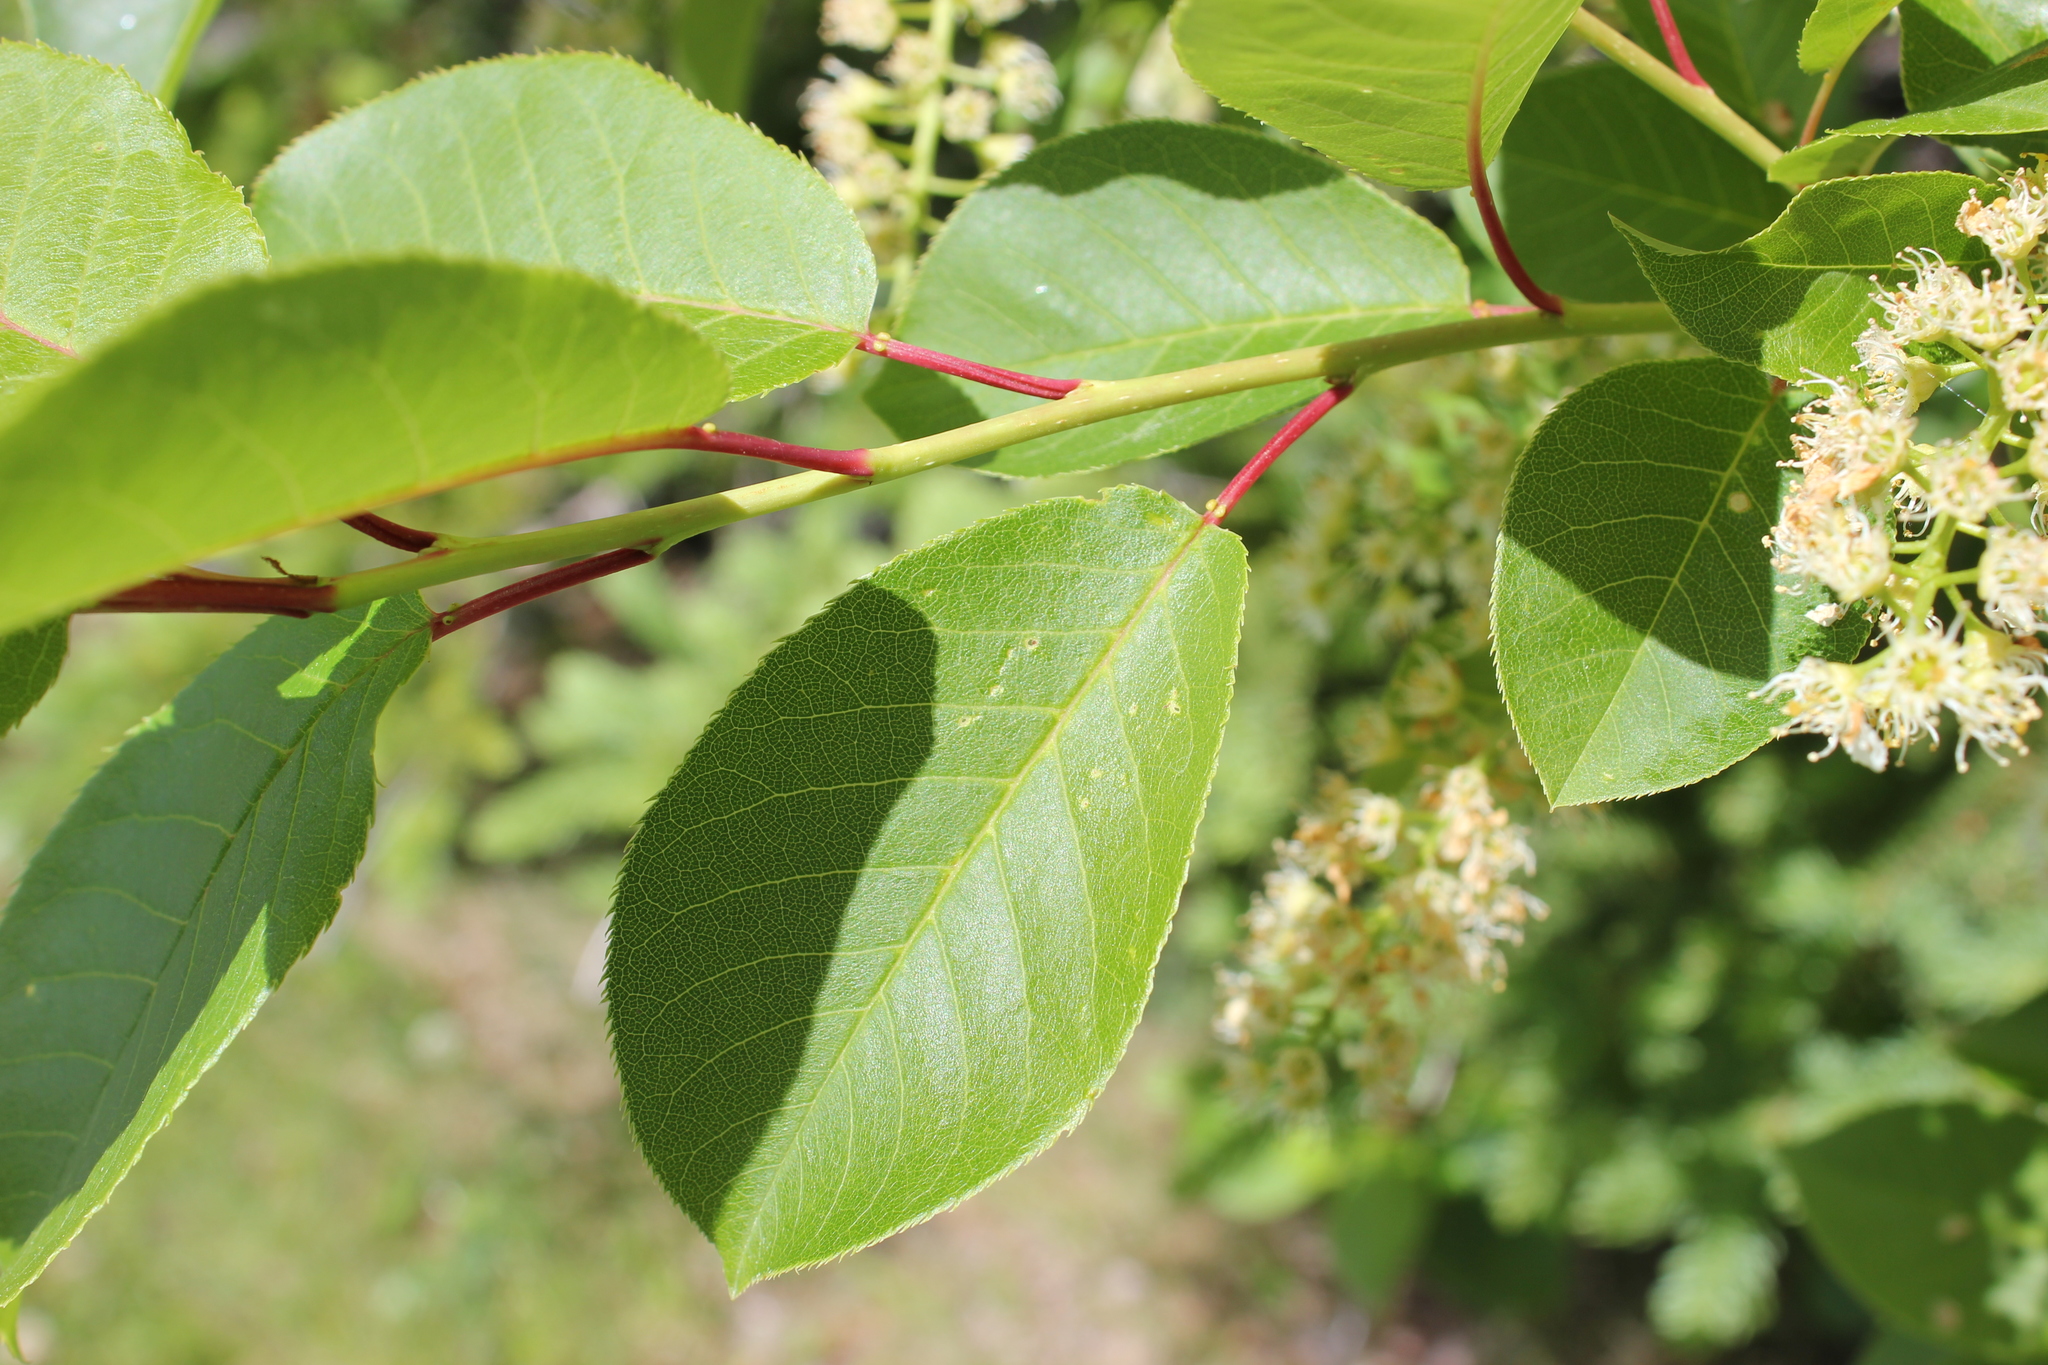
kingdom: Plantae
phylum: Tracheophyta
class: Magnoliopsida
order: Rosales
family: Rosaceae
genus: Prunus
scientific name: Prunus virginiana
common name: Chokecherry
